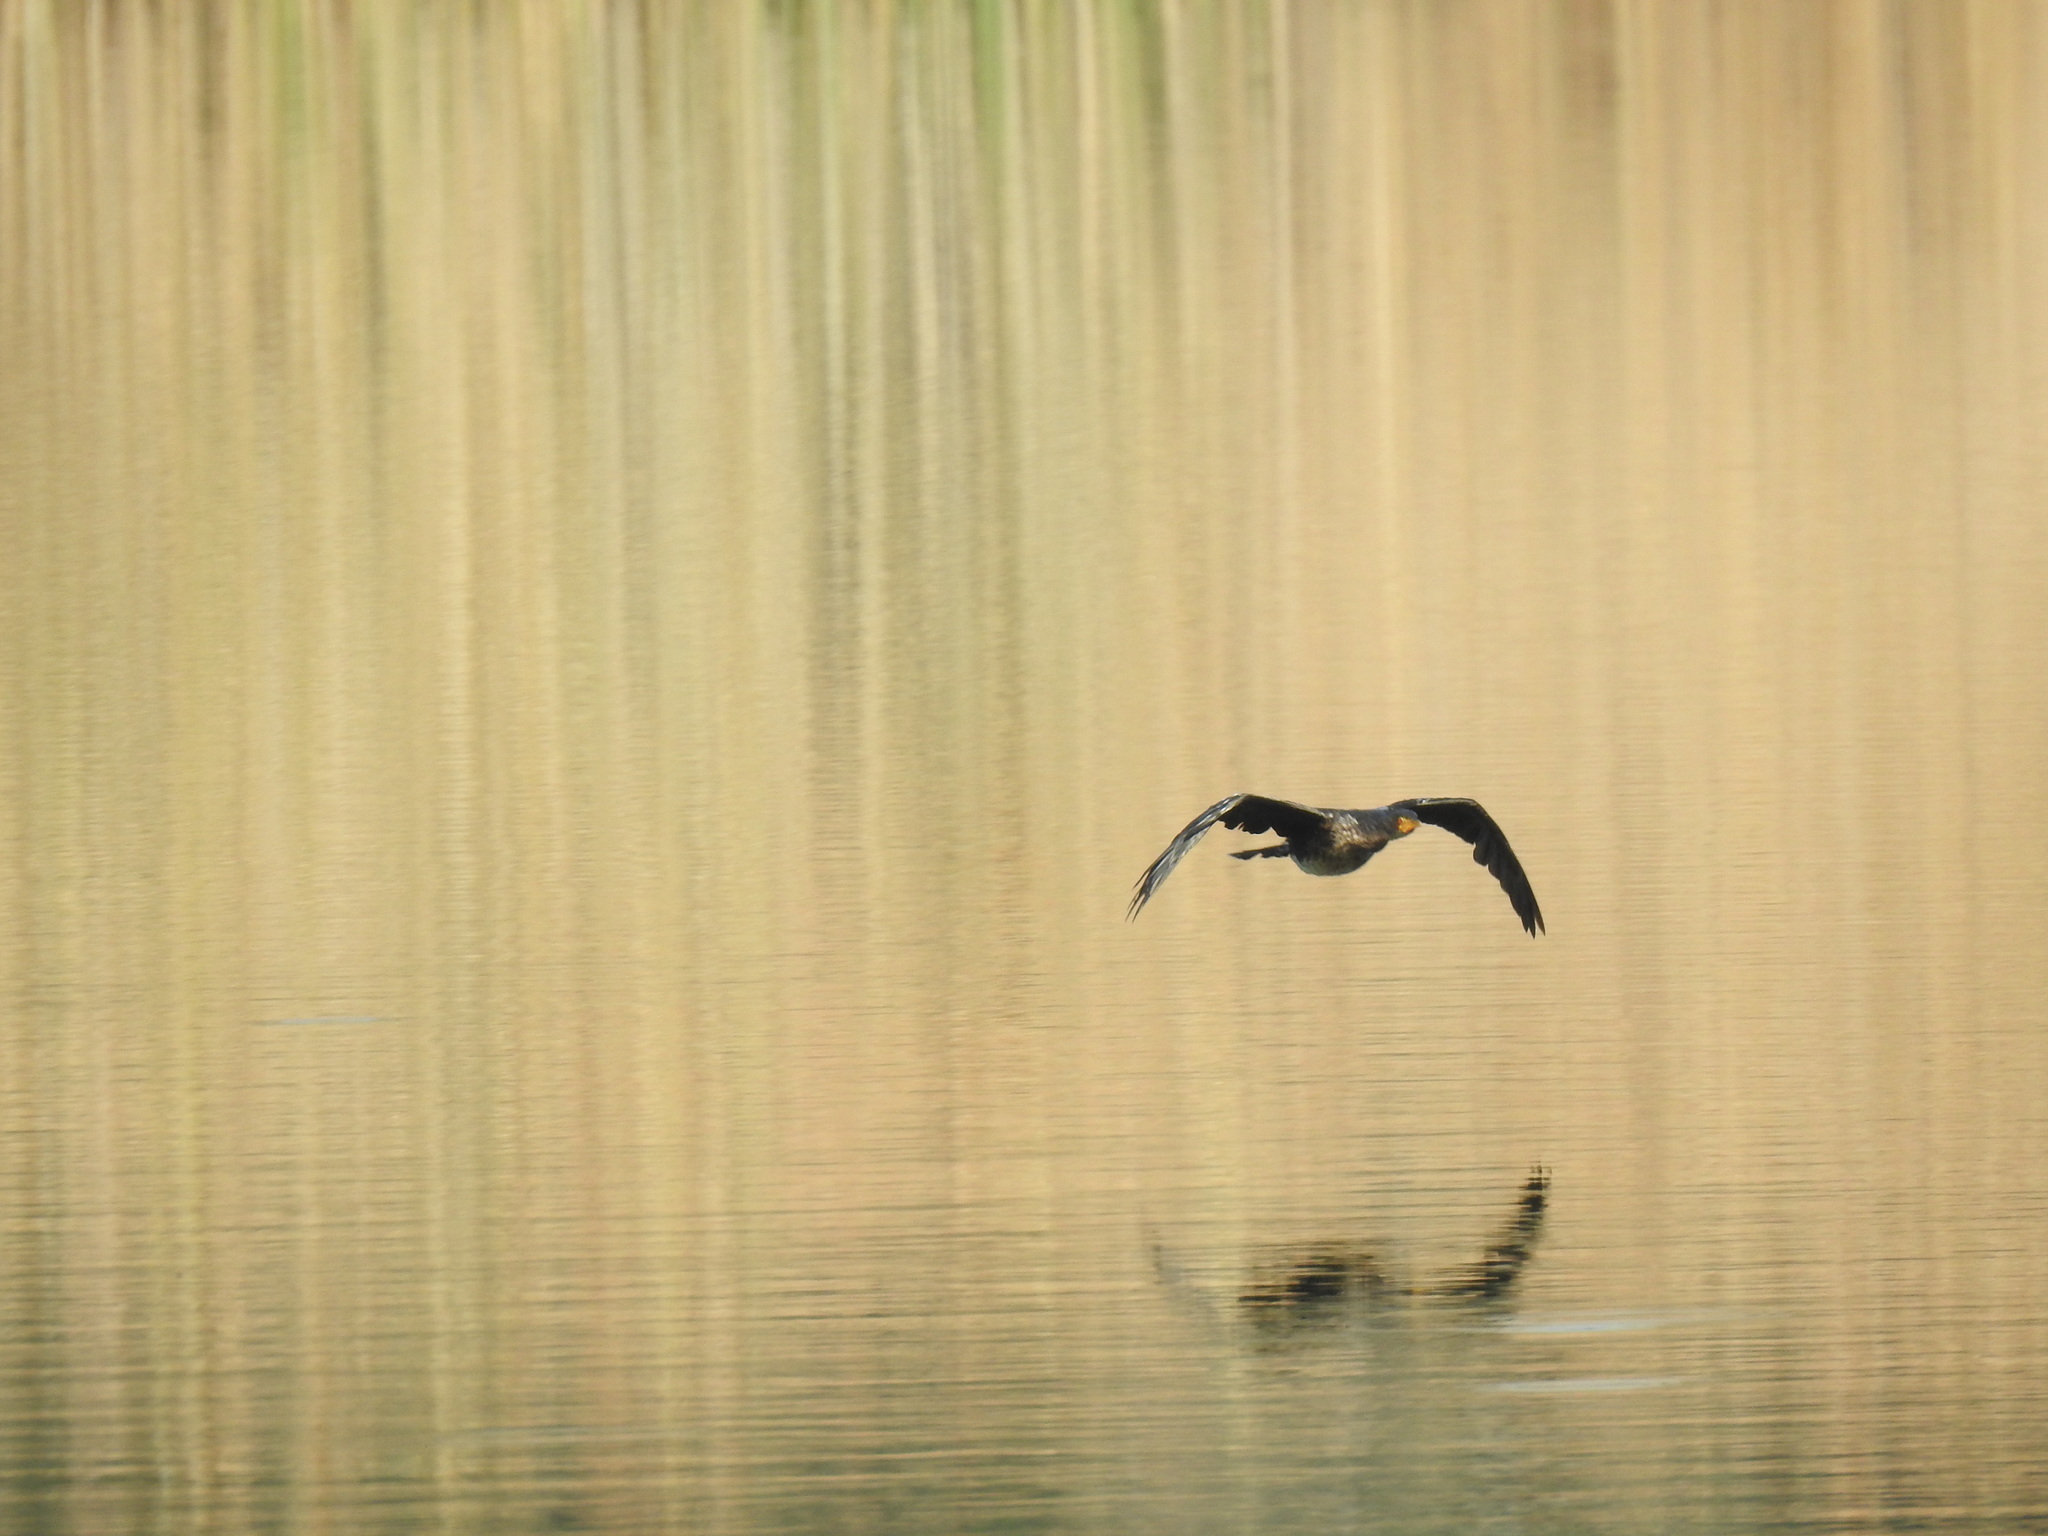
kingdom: Animalia
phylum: Chordata
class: Aves
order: Suliformes
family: Phalacrocoracidae
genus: Microcarbo
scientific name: Microcarbo africanus
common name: Long-tailed cormorant
